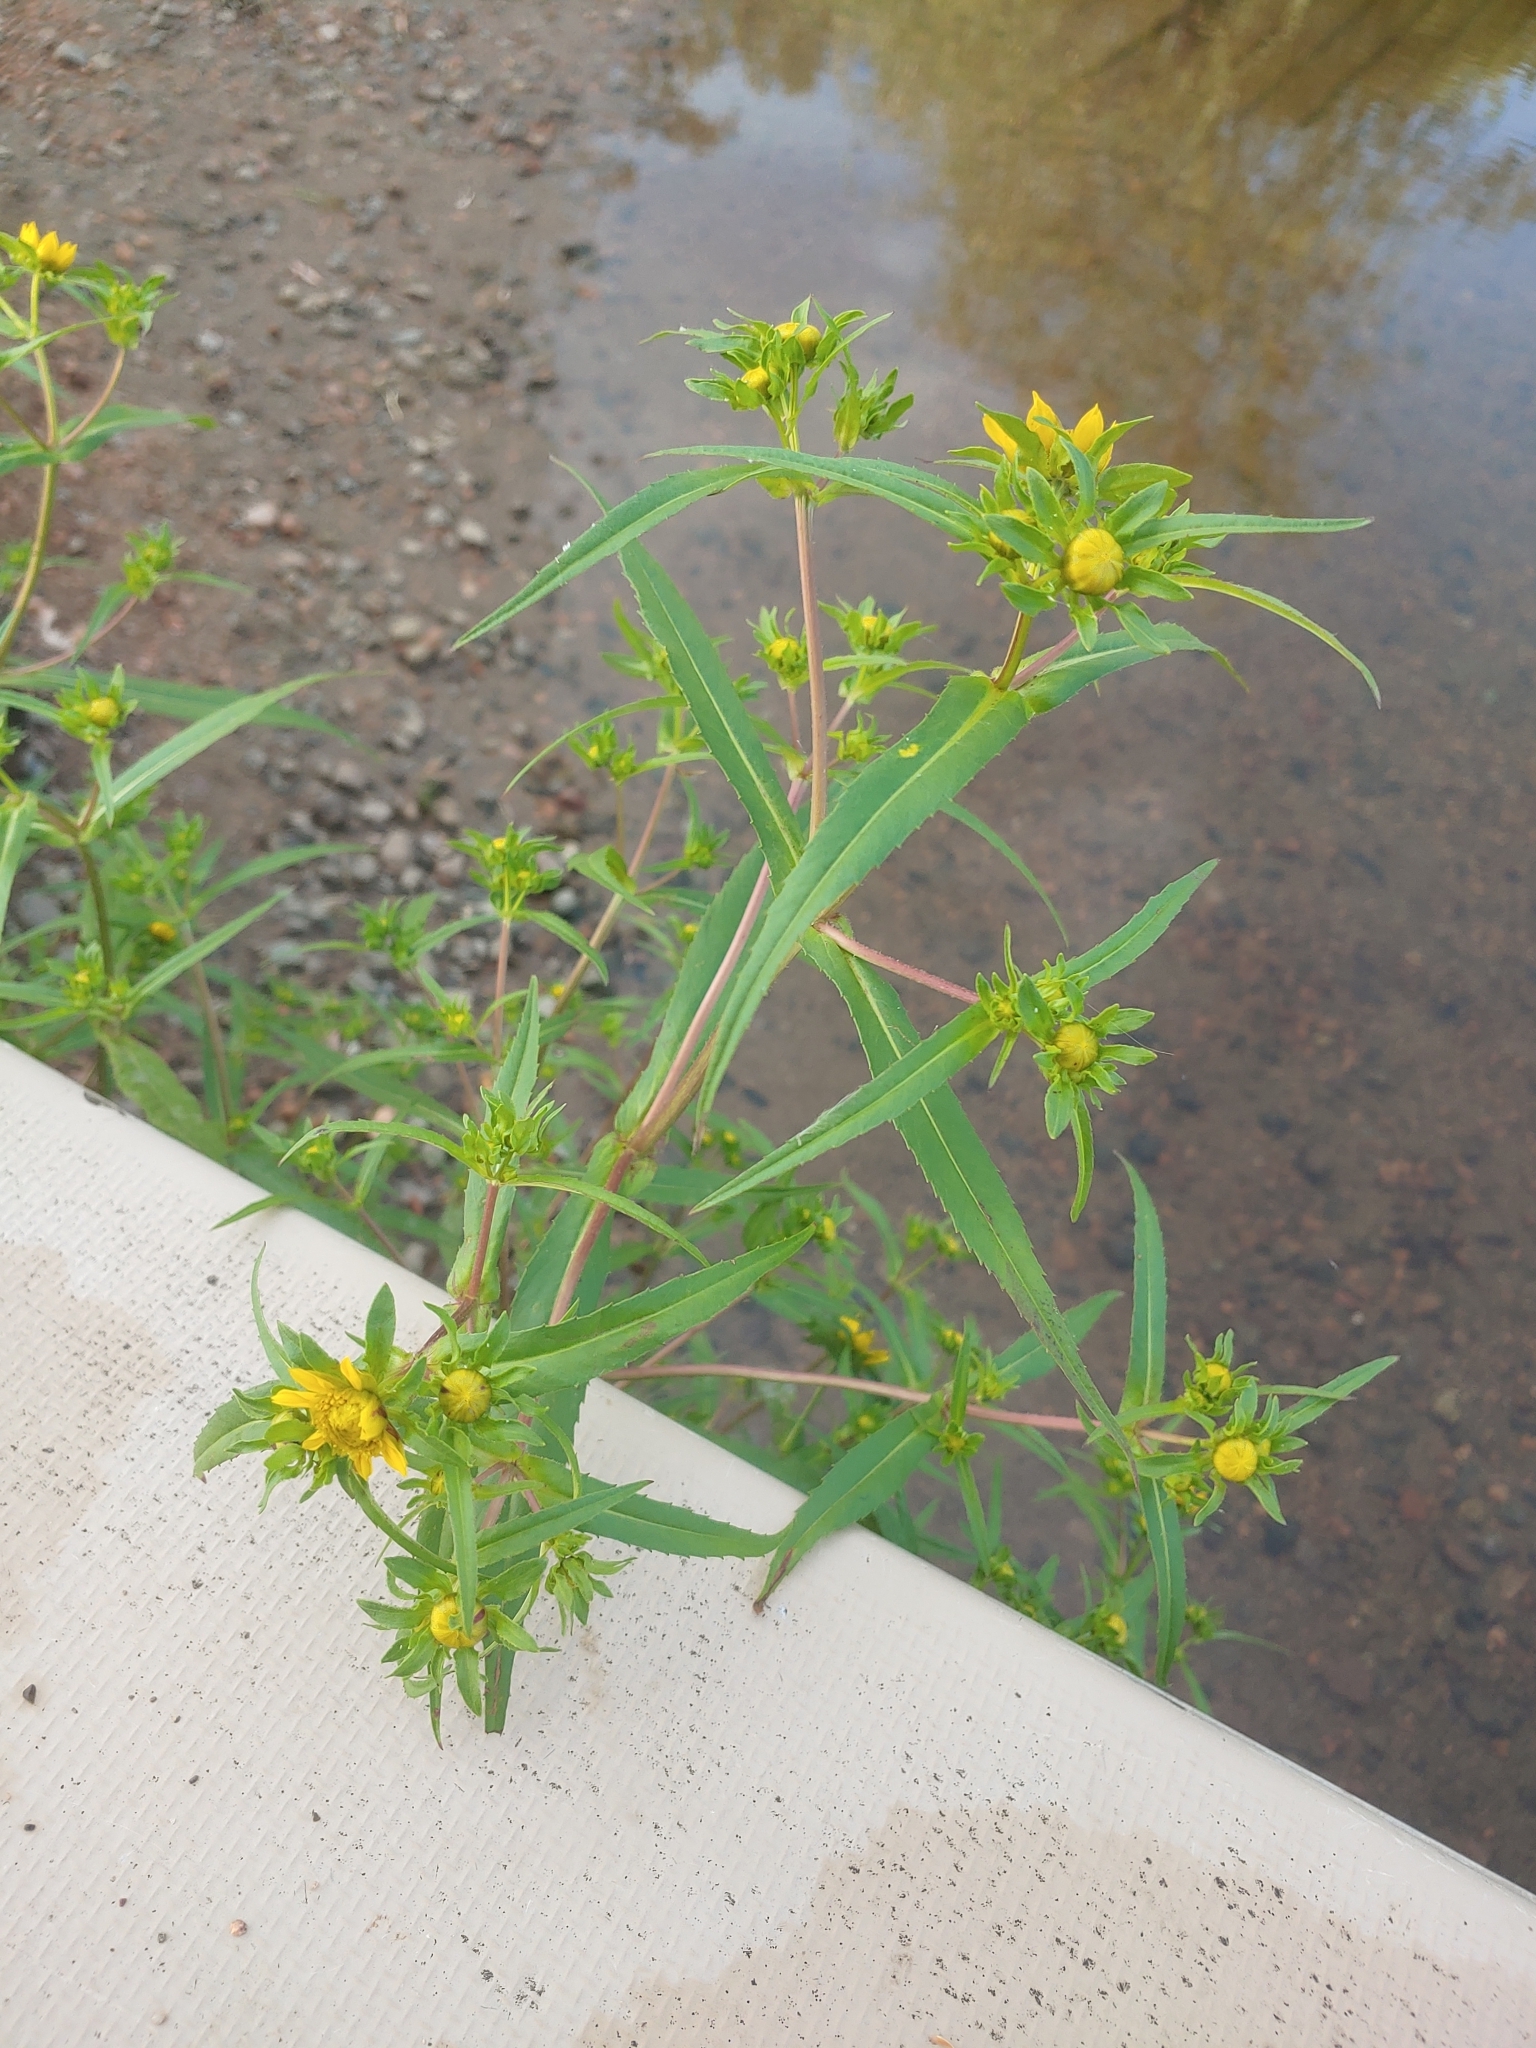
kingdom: Plantae
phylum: Tracheophyta
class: Magnoliopsida
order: Asterales
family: Asteraceae
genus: Bidens
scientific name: Bidens cernua
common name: Nodding bur-marigold
